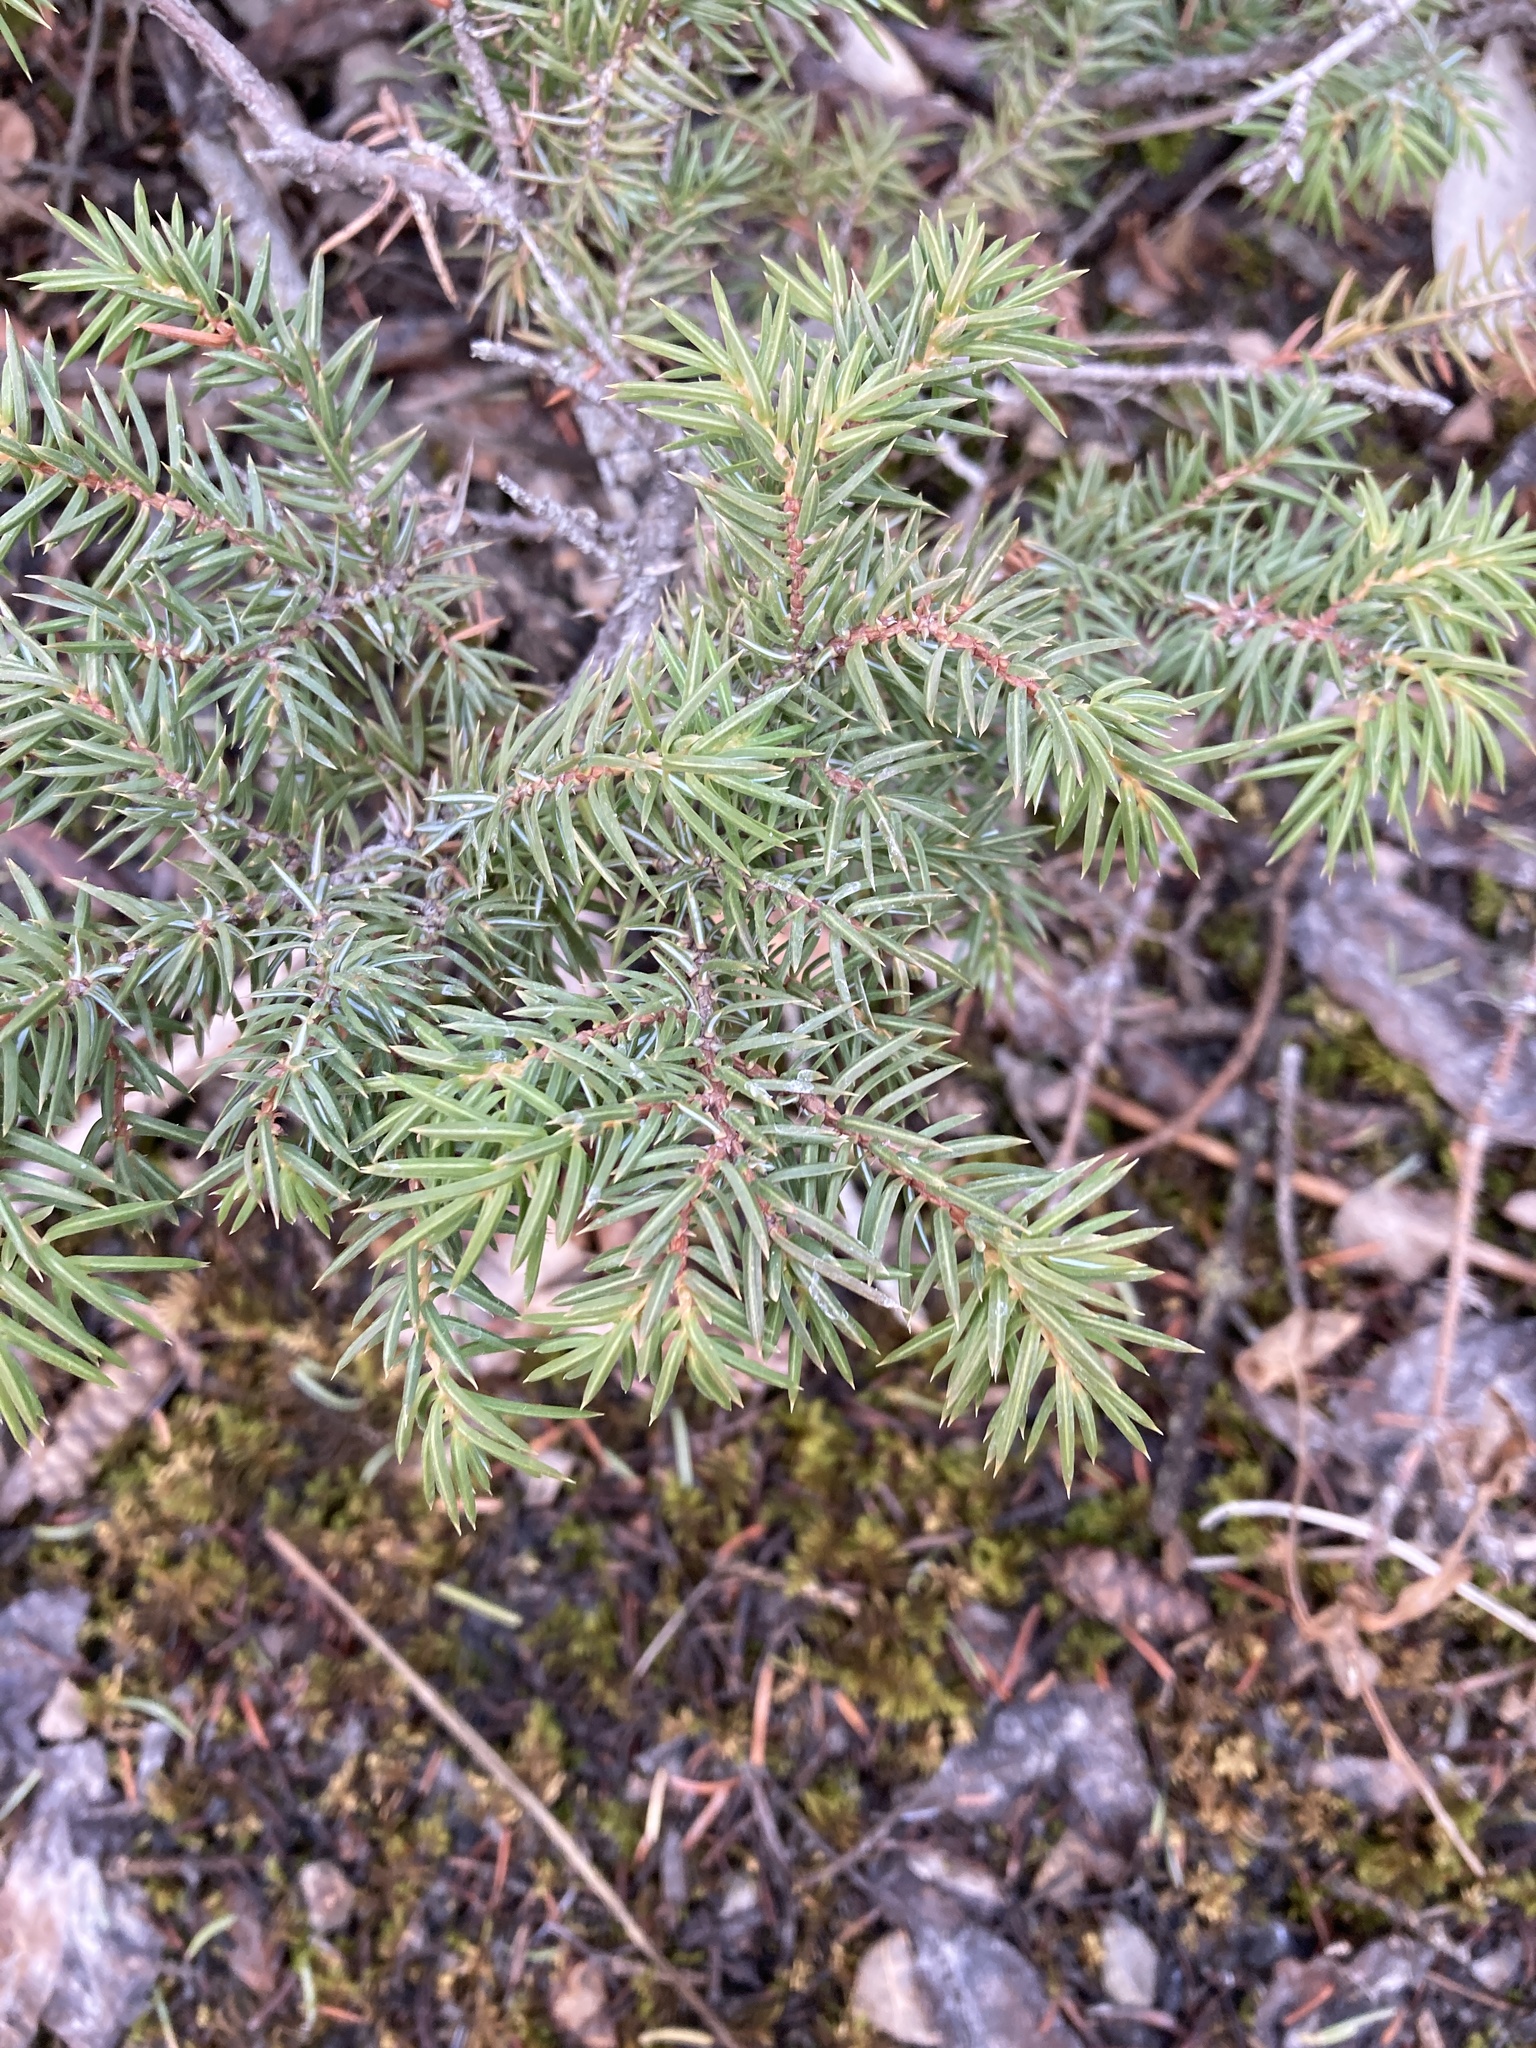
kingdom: Plantae
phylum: Tracheophyta
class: Pinopsida
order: Pinales
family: Cupressaceae
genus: Juniperus
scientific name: Juniperus communis
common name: Common juniper
